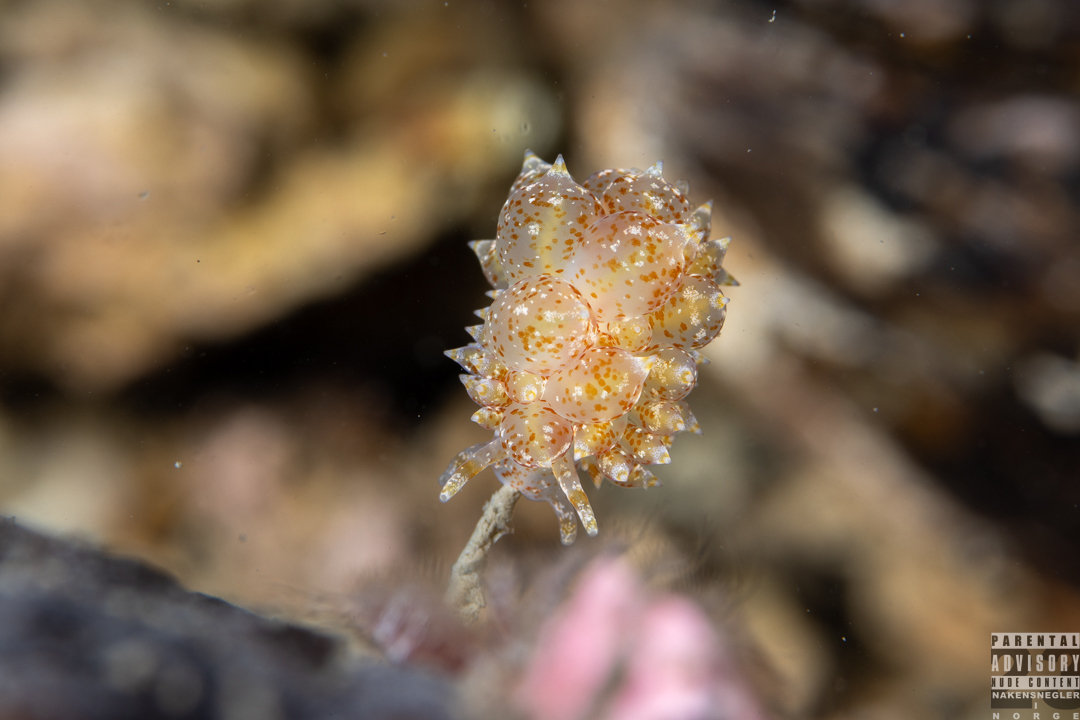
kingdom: Animalia
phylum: Mollusca
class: Gastropoda
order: Nudibranchia
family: Eubranchidae
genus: Amphorina
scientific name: Amphorina pallida
